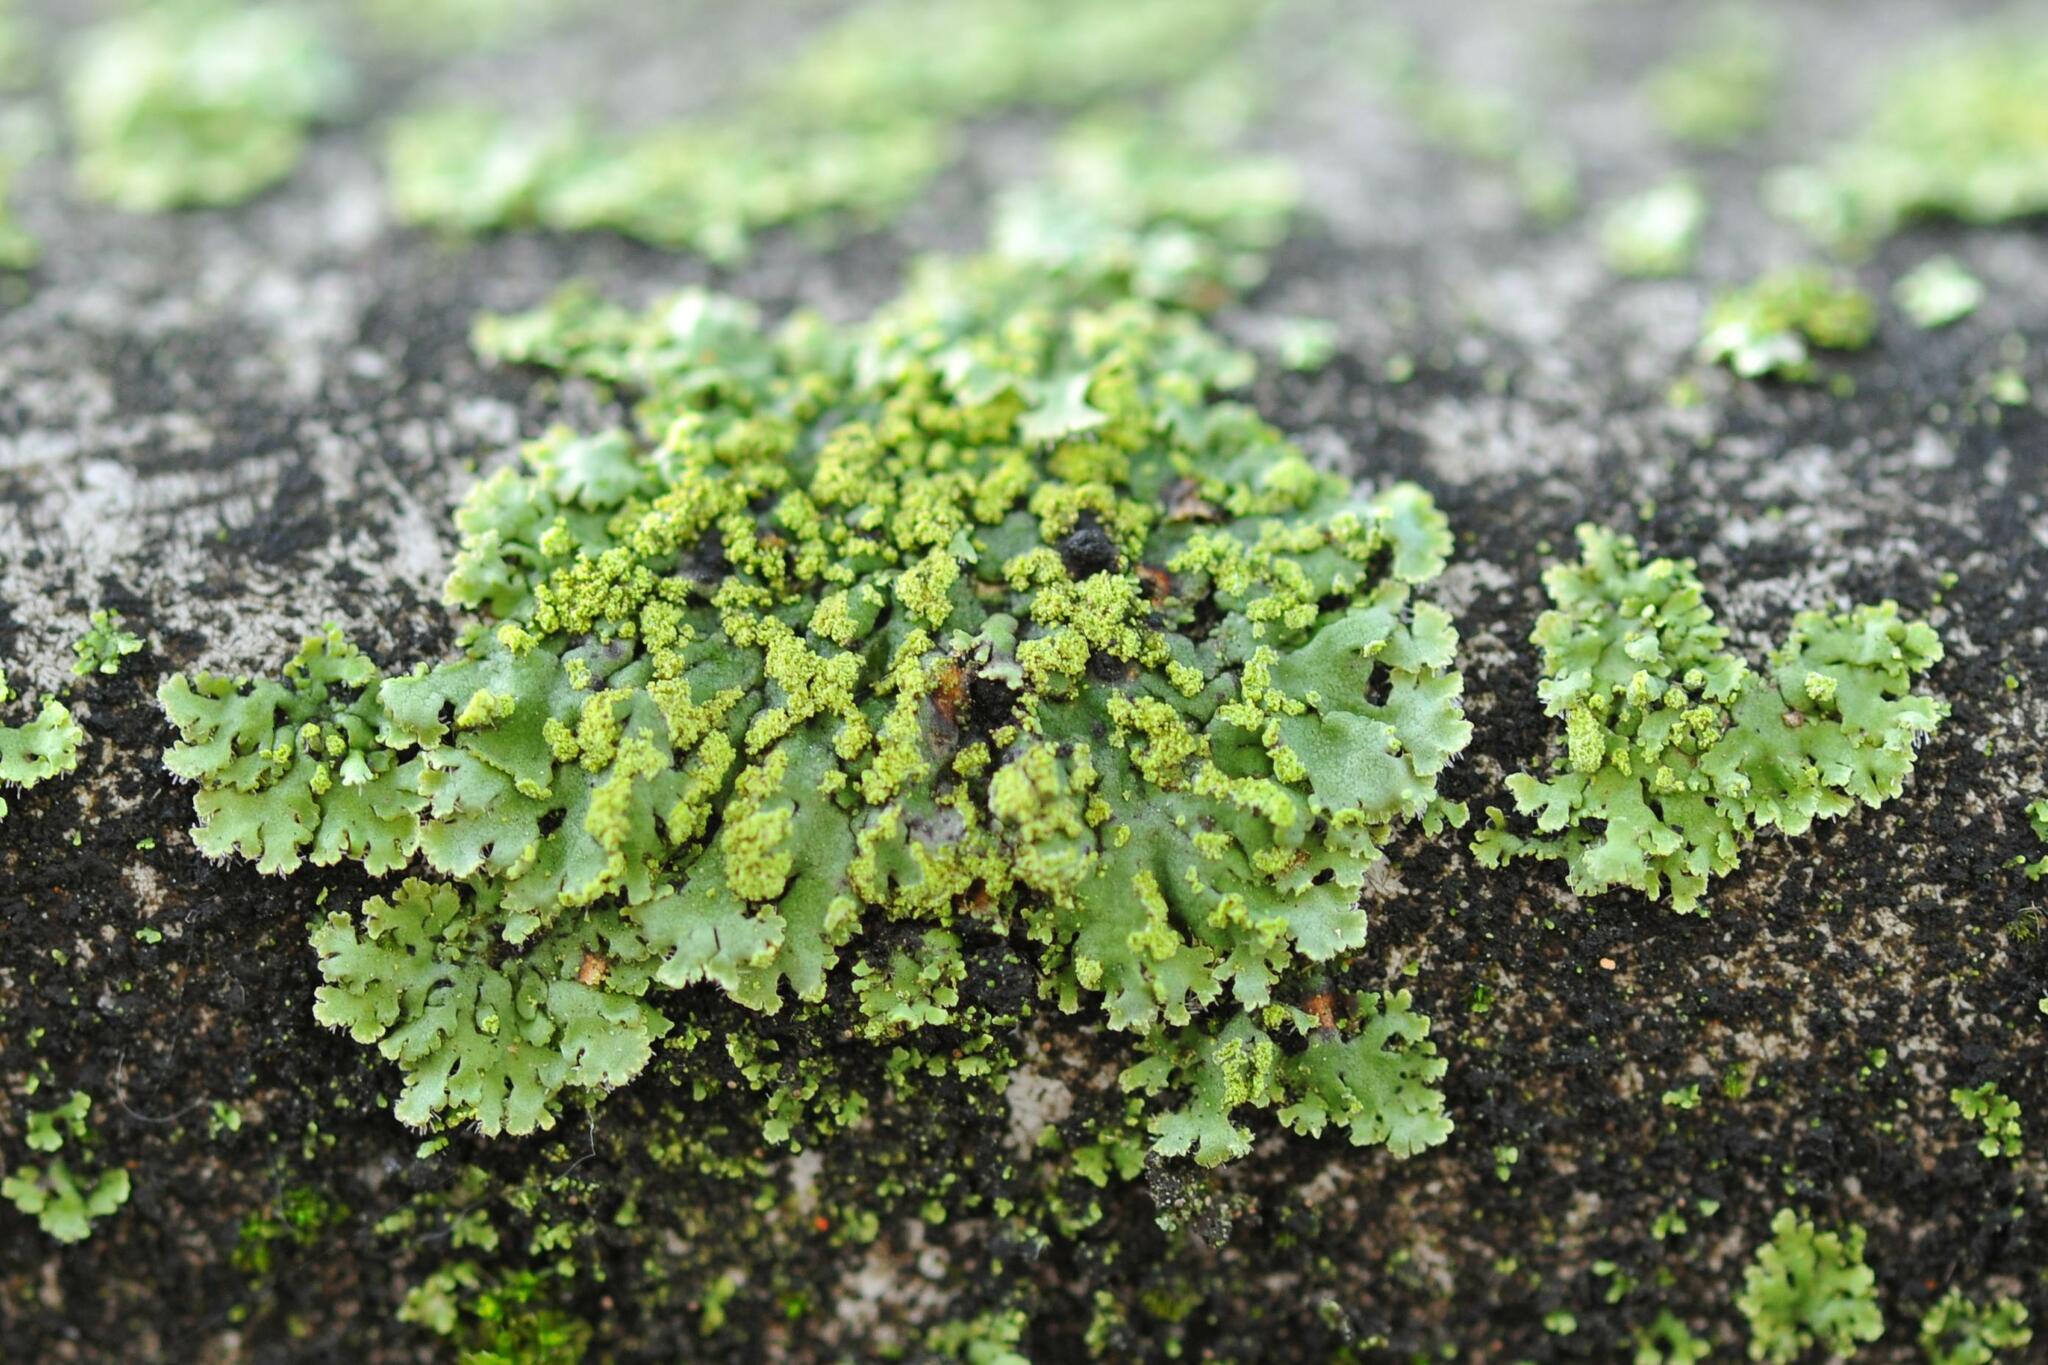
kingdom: Fungi
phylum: Ascomycota
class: Lecanoromycetes
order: Caliciales
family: Physciaceae
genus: Phaeophyscia
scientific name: Phaeophyscia orbicularis
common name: Mealy shadow lichen
